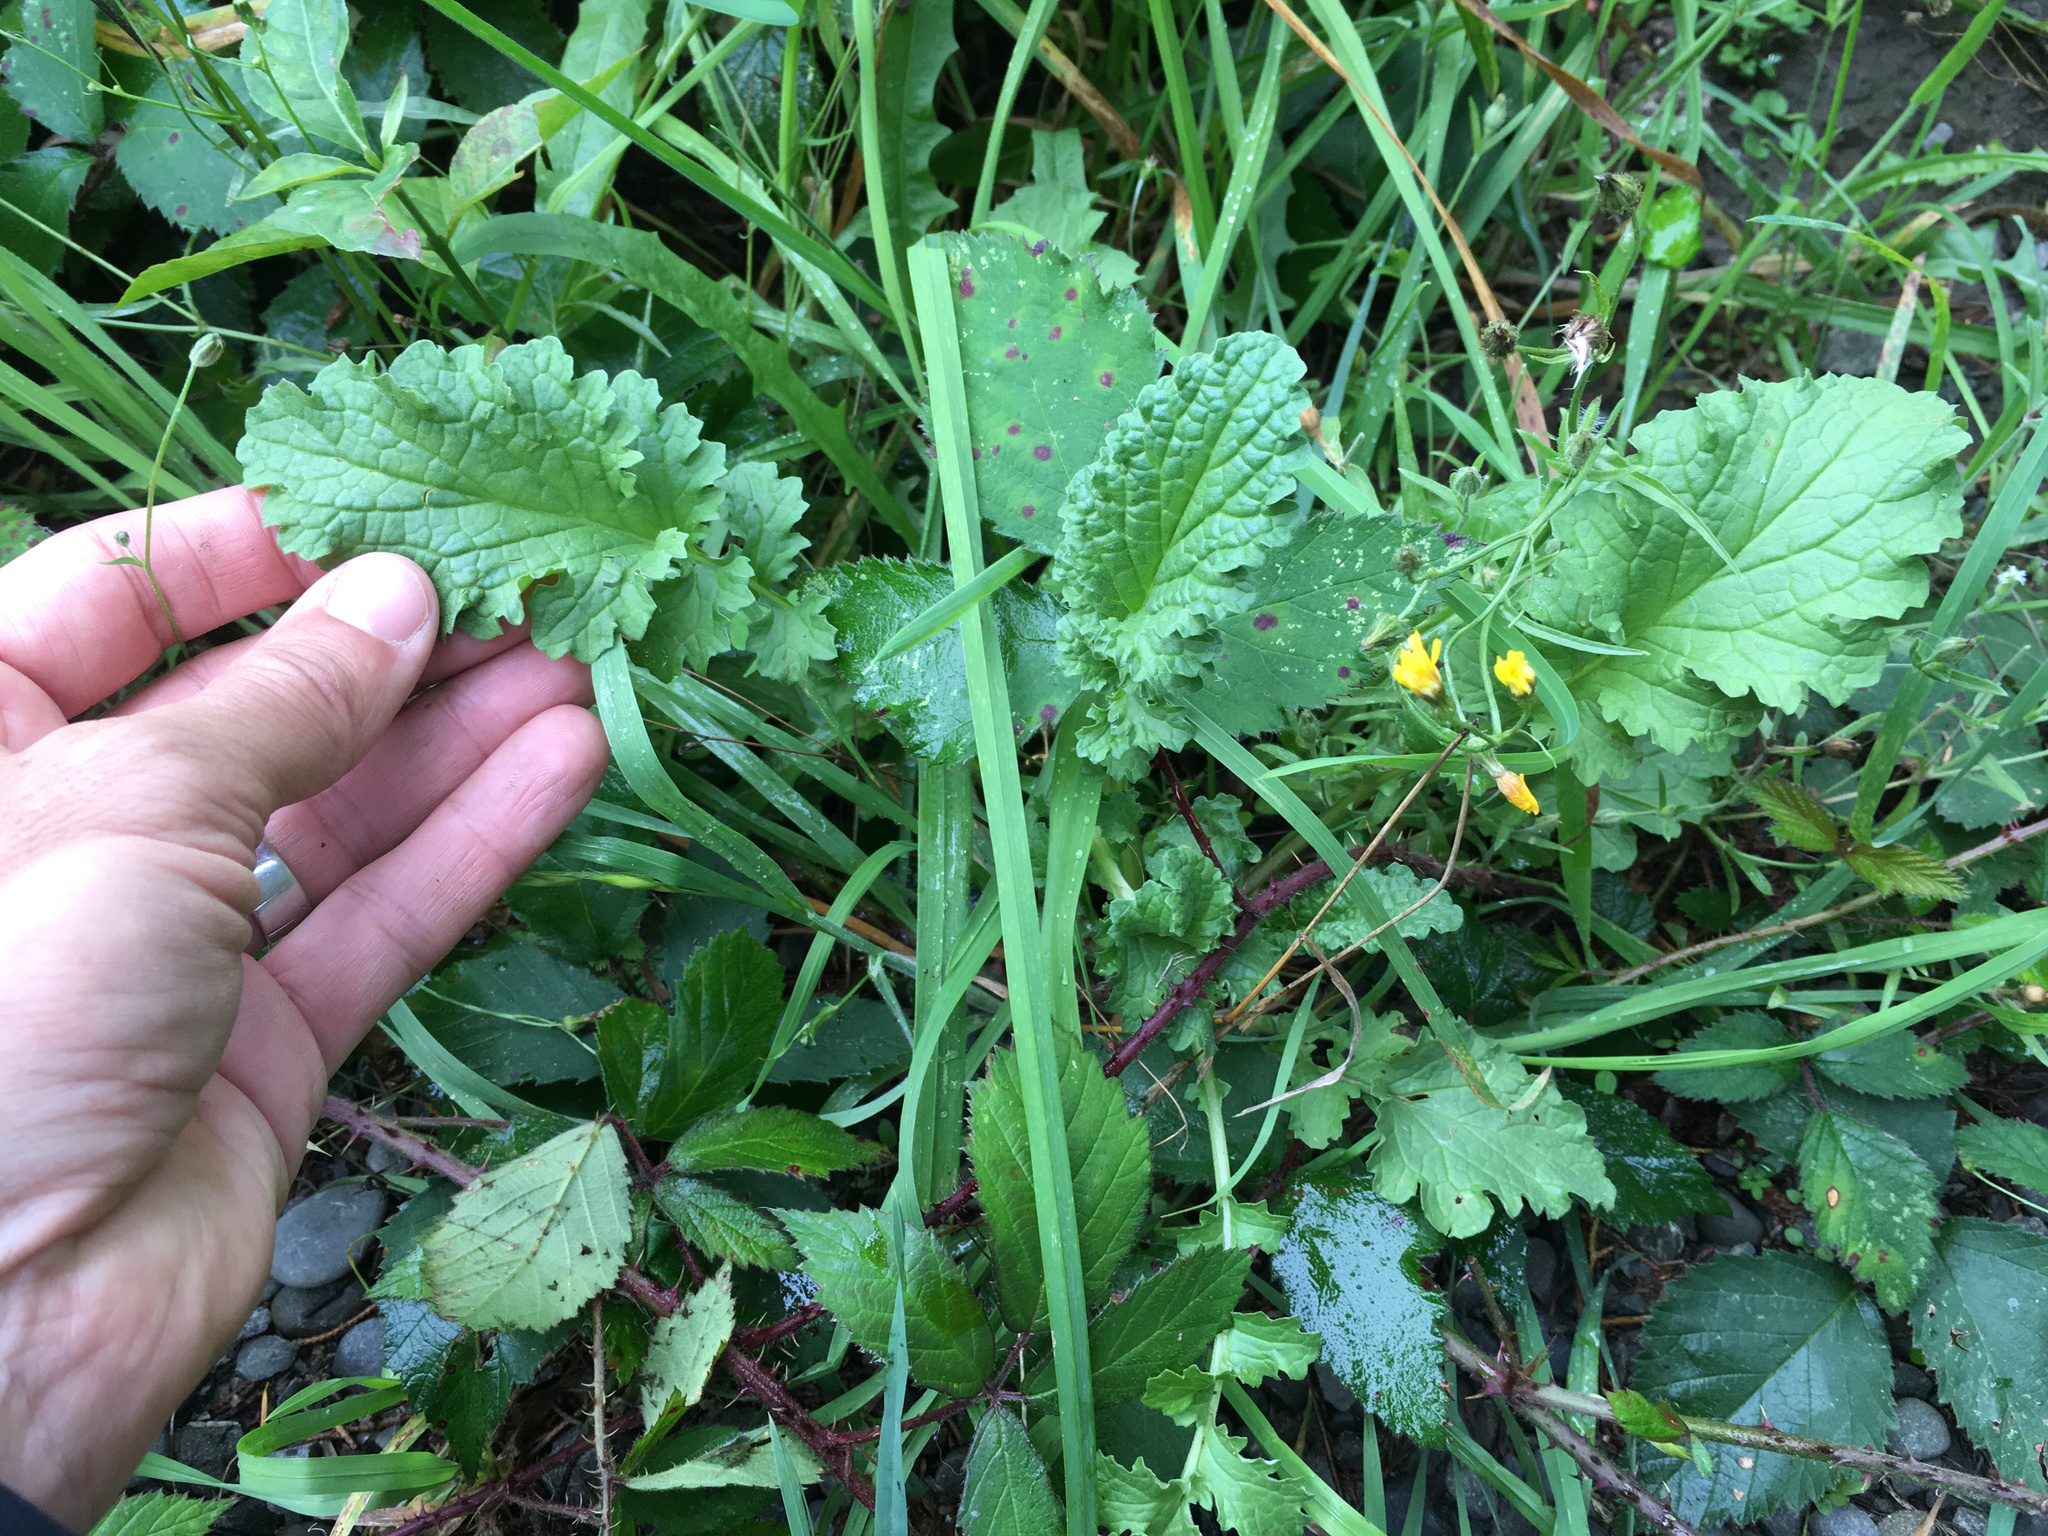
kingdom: Plantae
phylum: Tracheophyta
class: Magnoliopsida
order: Asterales
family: Asteraceae
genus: Jacobaea
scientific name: Jacobaea vulgaris
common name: Stinking willie
